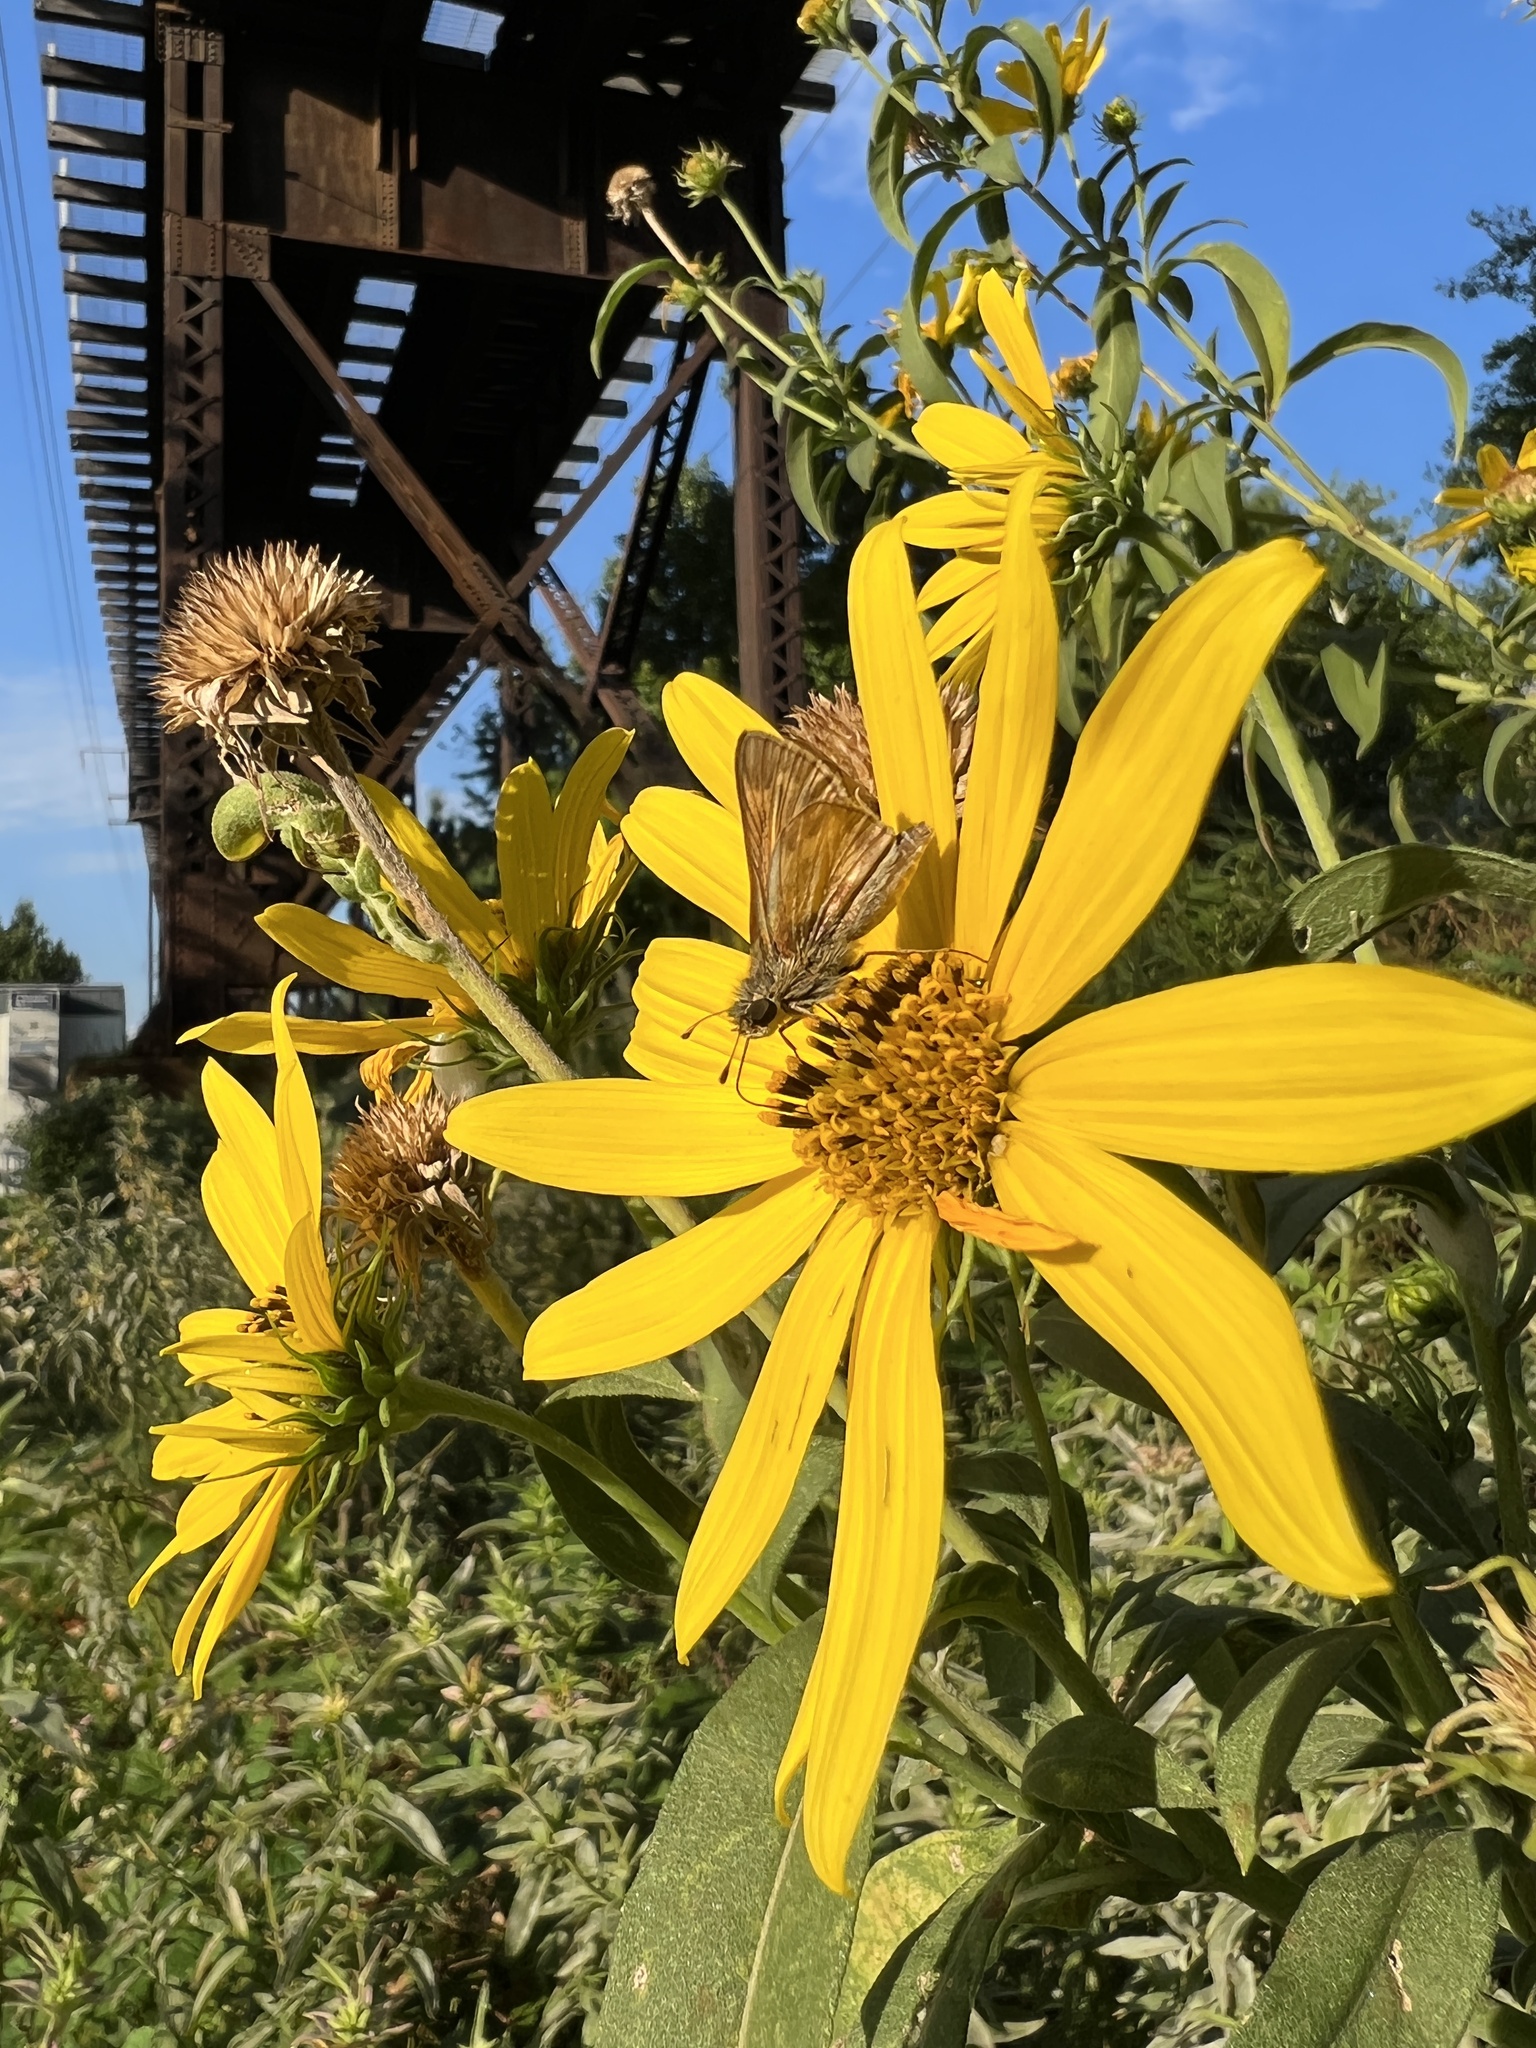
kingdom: Animalia
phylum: Arthropoda
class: Insecta
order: Lepidoptera
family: Hesperiidae
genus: Atalopedes
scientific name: Atalopedes
